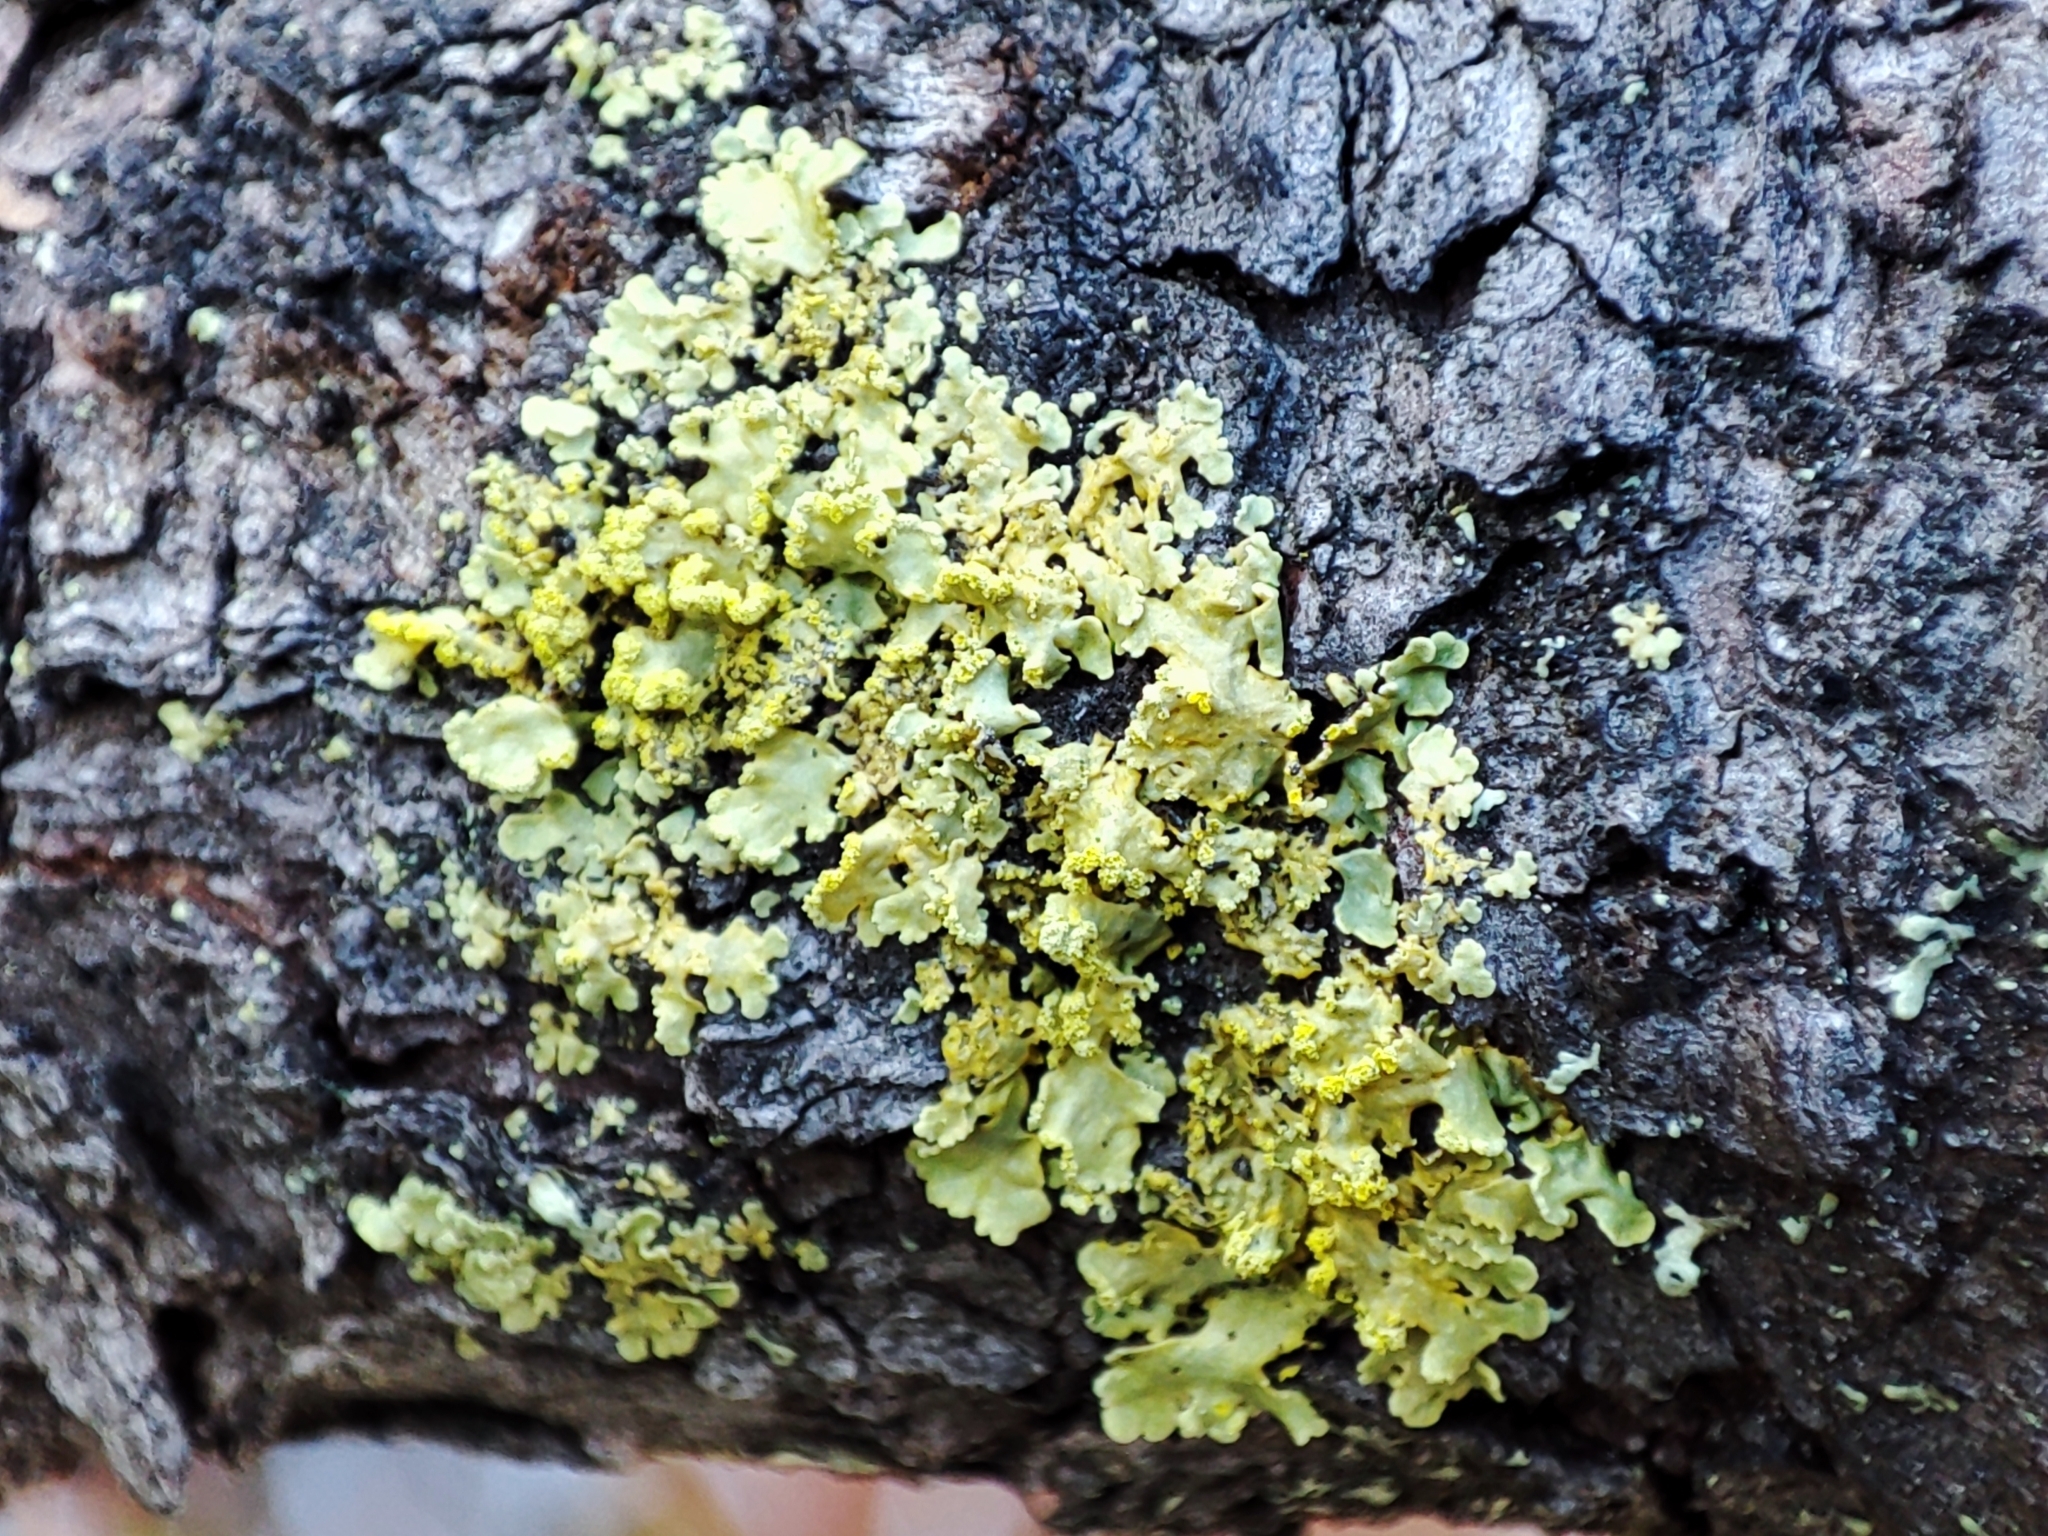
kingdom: Fungi
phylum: Ascomycota
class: Lecanoromycetes
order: Lecanorales
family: Parmeliaceae
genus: Vulpicida
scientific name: Vulpicida pinastri
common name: Powdered sunshine lichen
